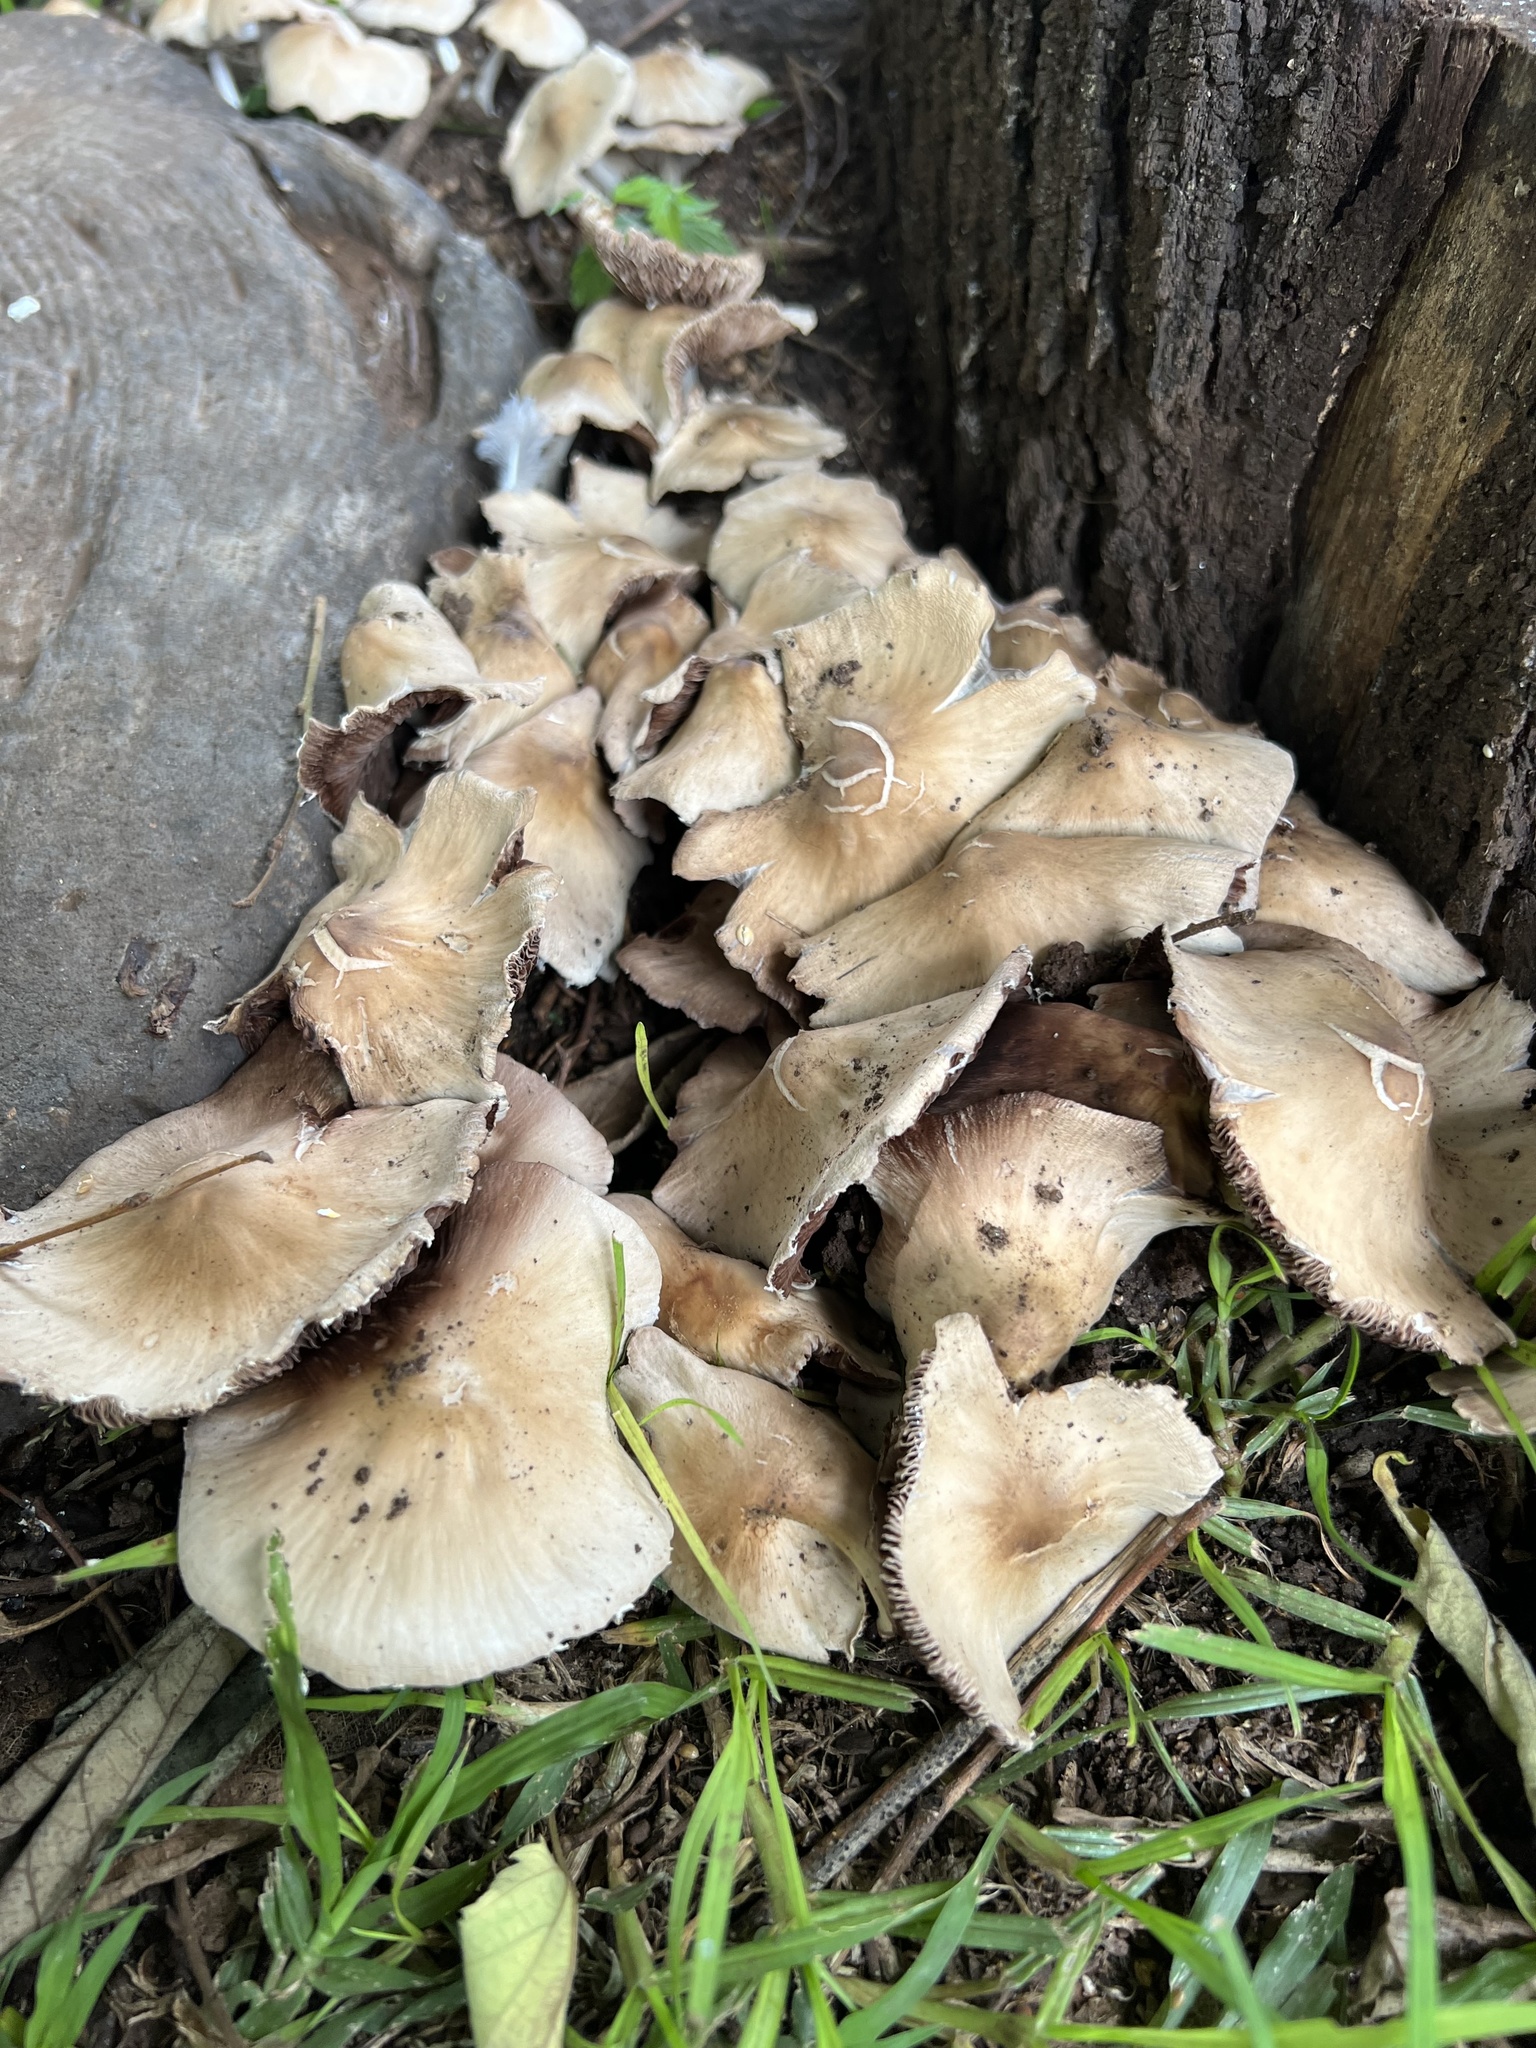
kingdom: Fungi
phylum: Basidiomycota
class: Agaricomycetes
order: Agaricales
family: Psathyrellaceae
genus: Candolleomyces
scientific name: Candolleomyces candolleanus
